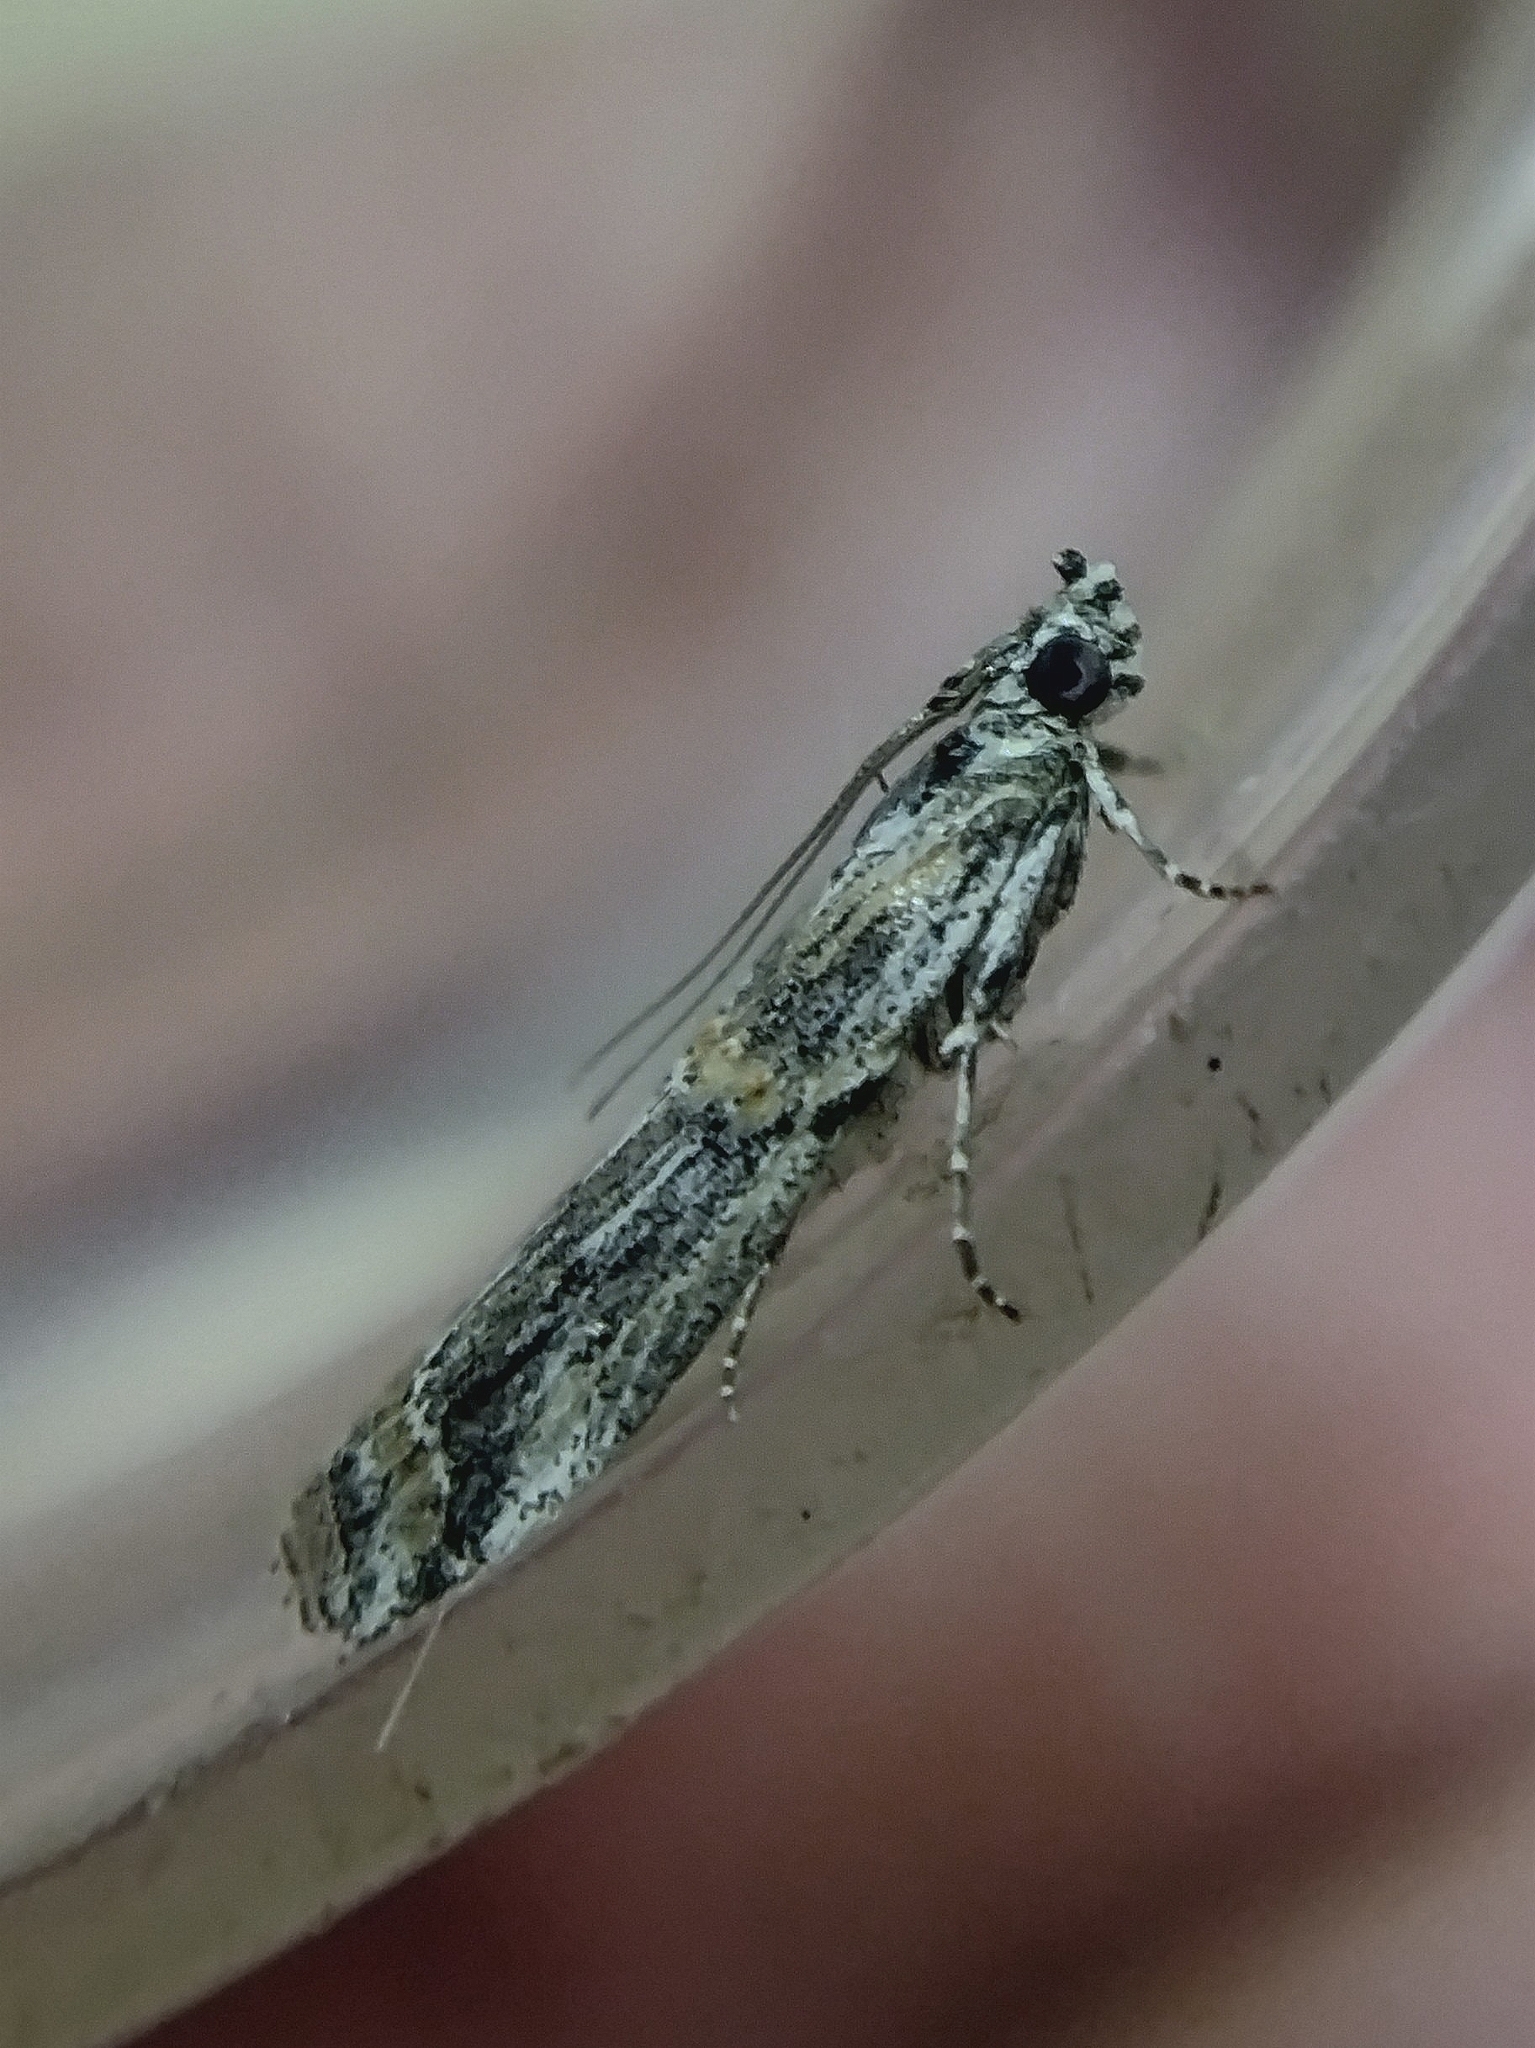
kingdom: Animalia
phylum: Arthropoda
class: Insecta
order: Lepidoptera
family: Pyralidae
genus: Psorosa
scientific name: Psorosa strictella
